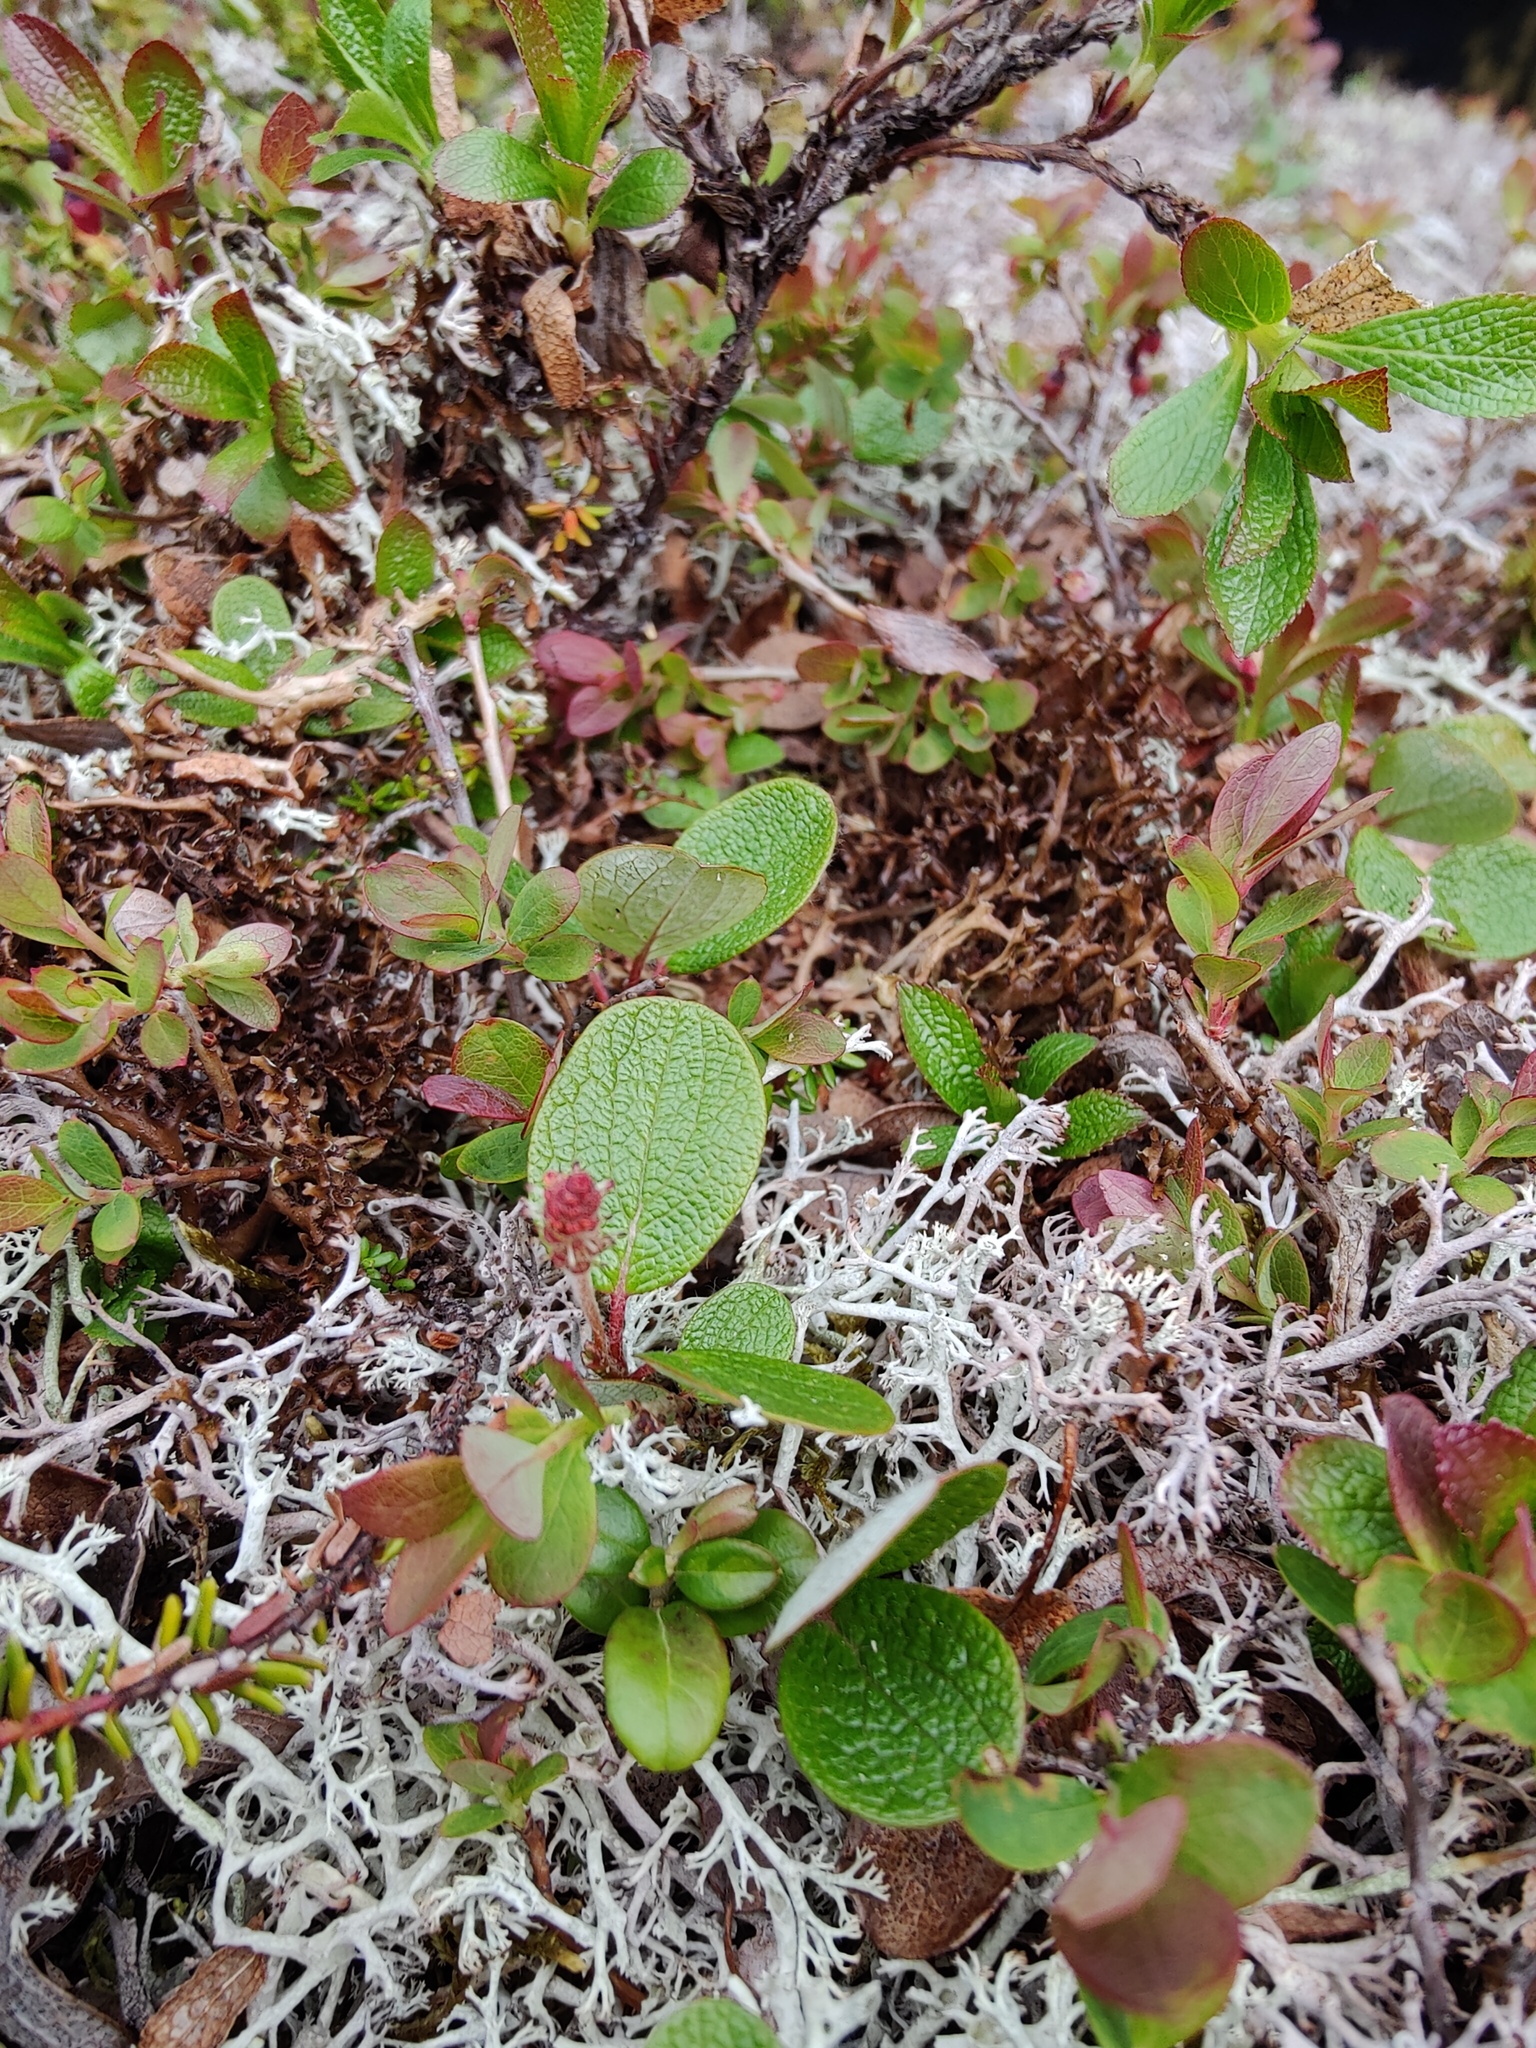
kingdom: Plantae
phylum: Tracheophyta
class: Magnoliopsida
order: Malpighiales
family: Salicaceae
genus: Salix
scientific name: Salix reticulata
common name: Net-leaved willow
